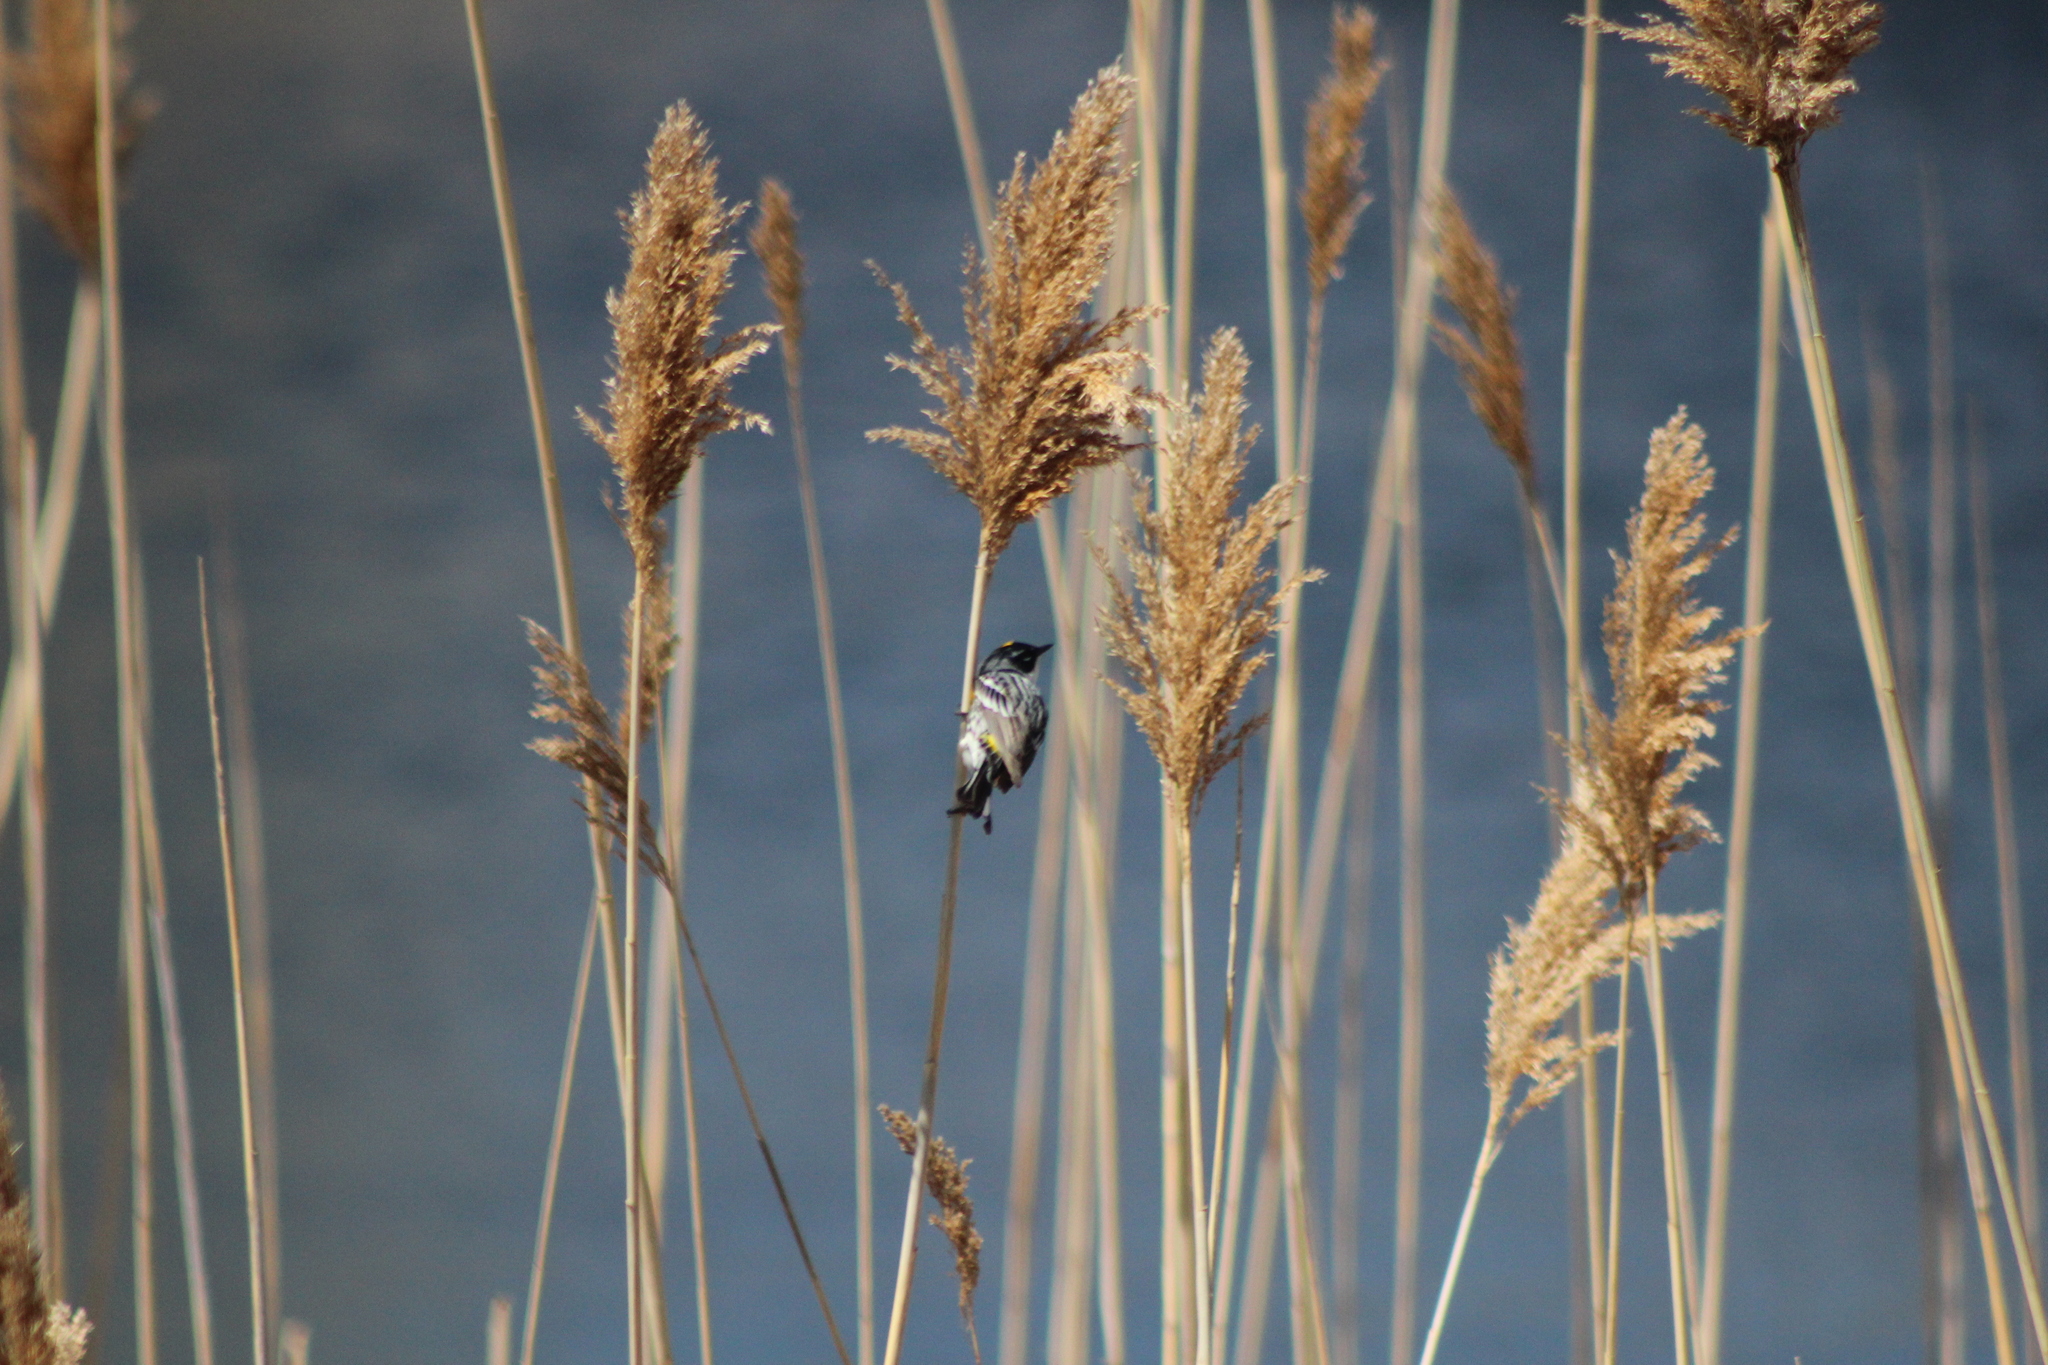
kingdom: Animalia
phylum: Chordata
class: Aves
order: Passeriformes
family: Parulidae
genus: Setophaga
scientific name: Setophaga coronata
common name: Myrtle warbler
